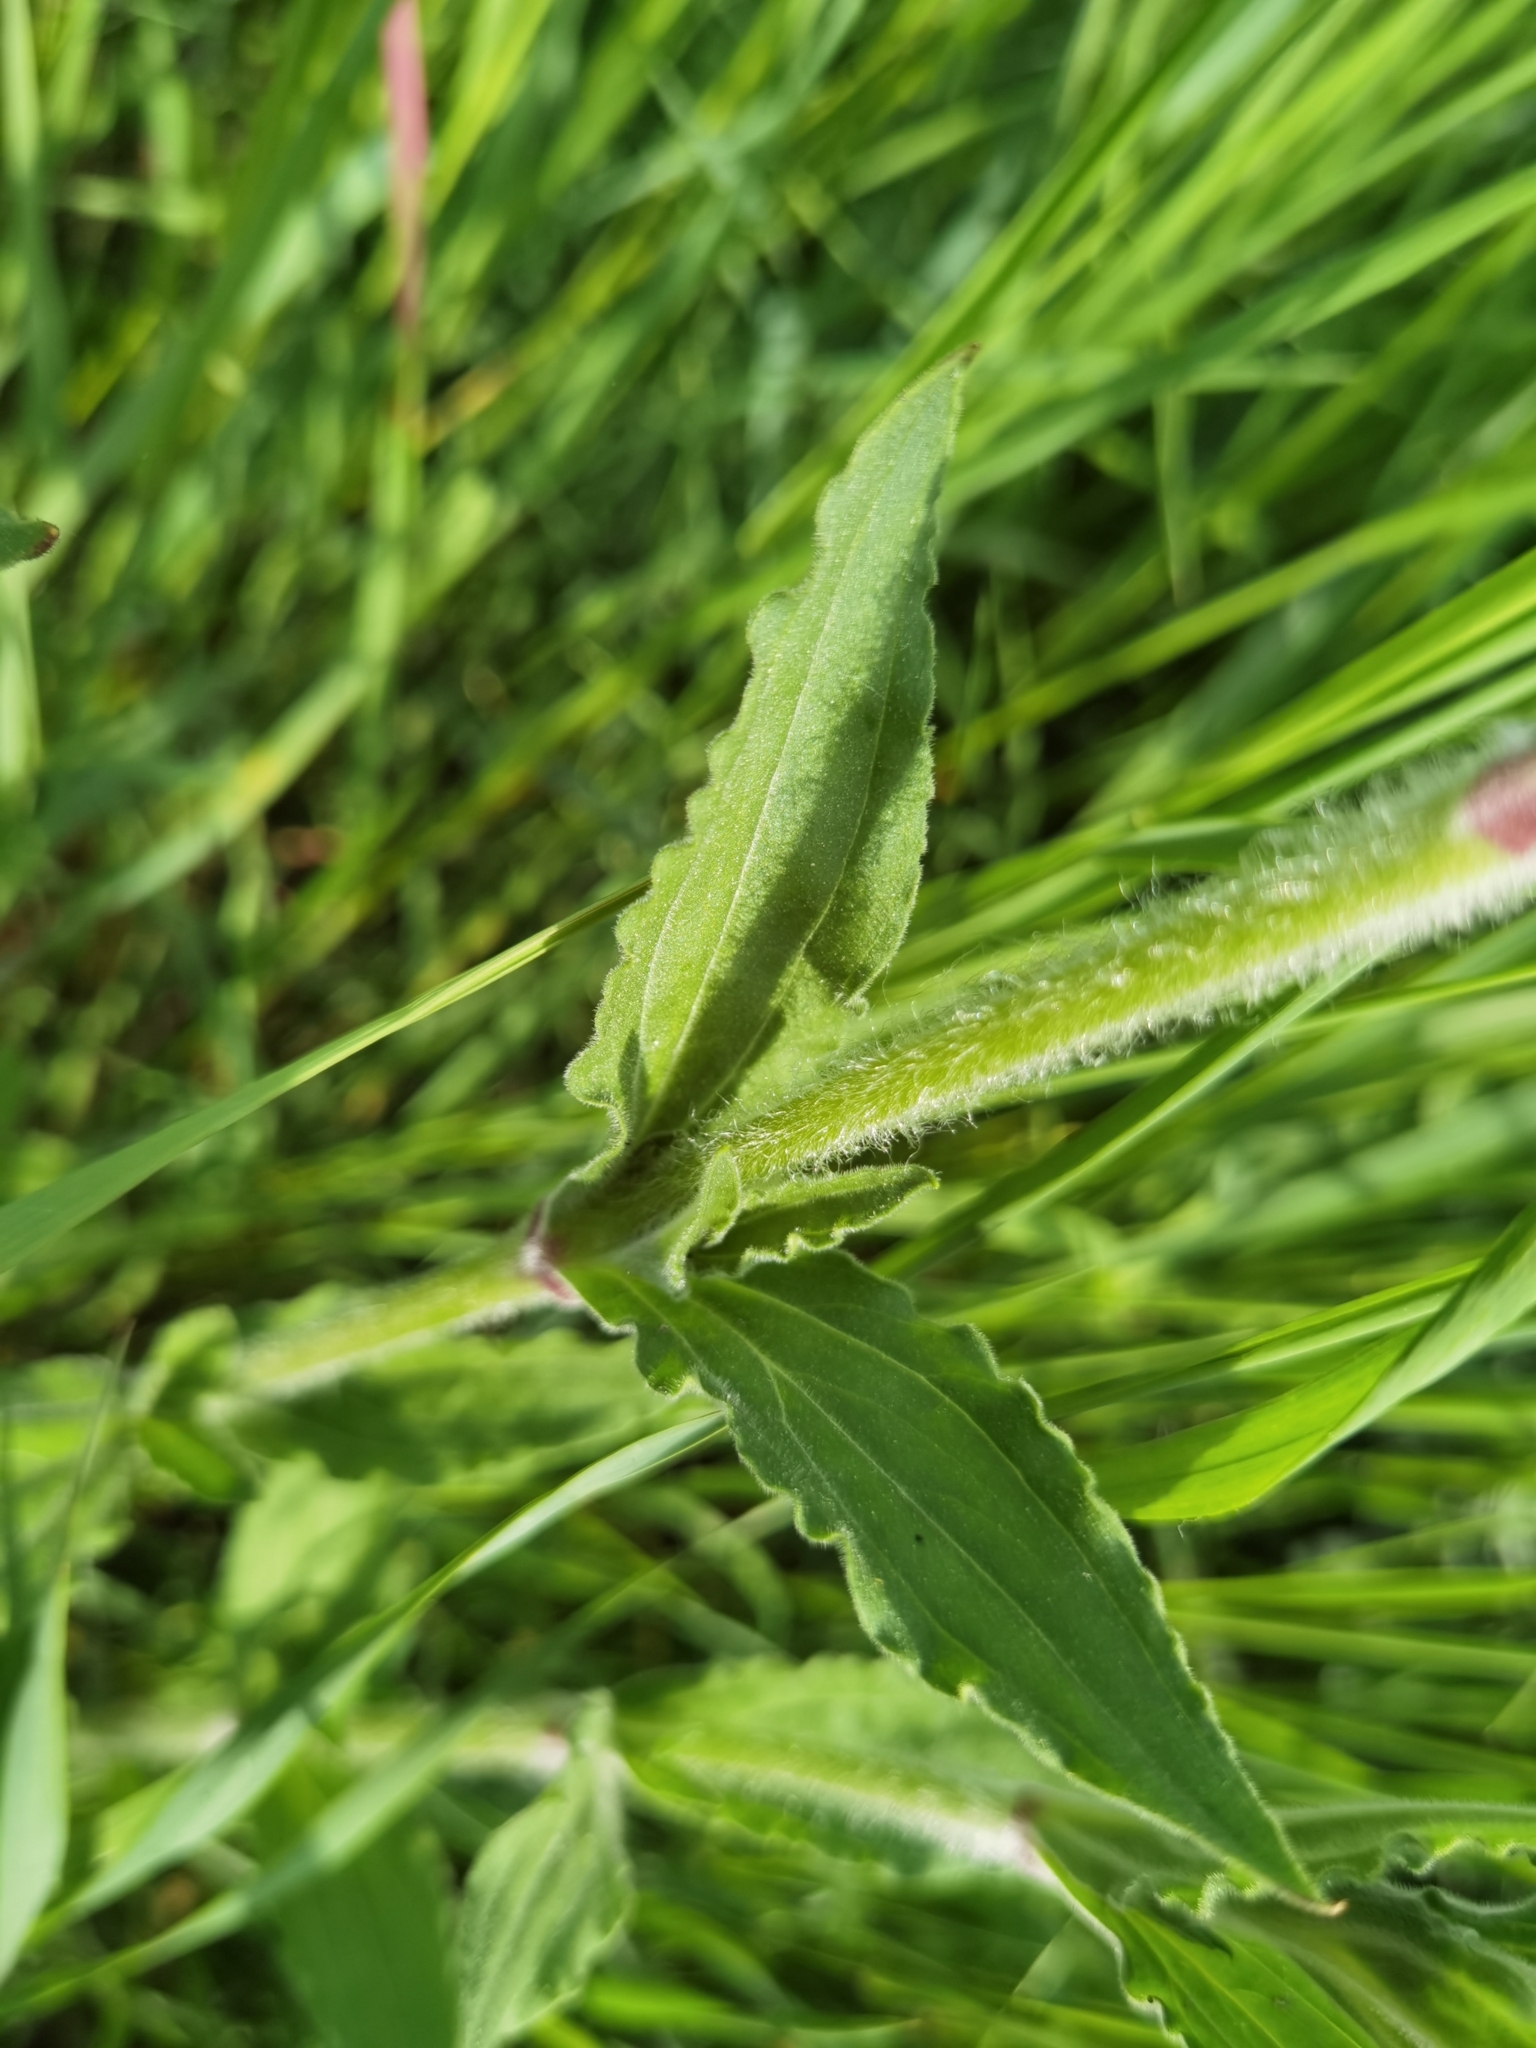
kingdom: Plantae
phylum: Tracheophyta
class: Magnoliopsida
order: Caryophyllales
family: Caryophyllaceae
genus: Silene
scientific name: Silene latifolia
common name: White campion
